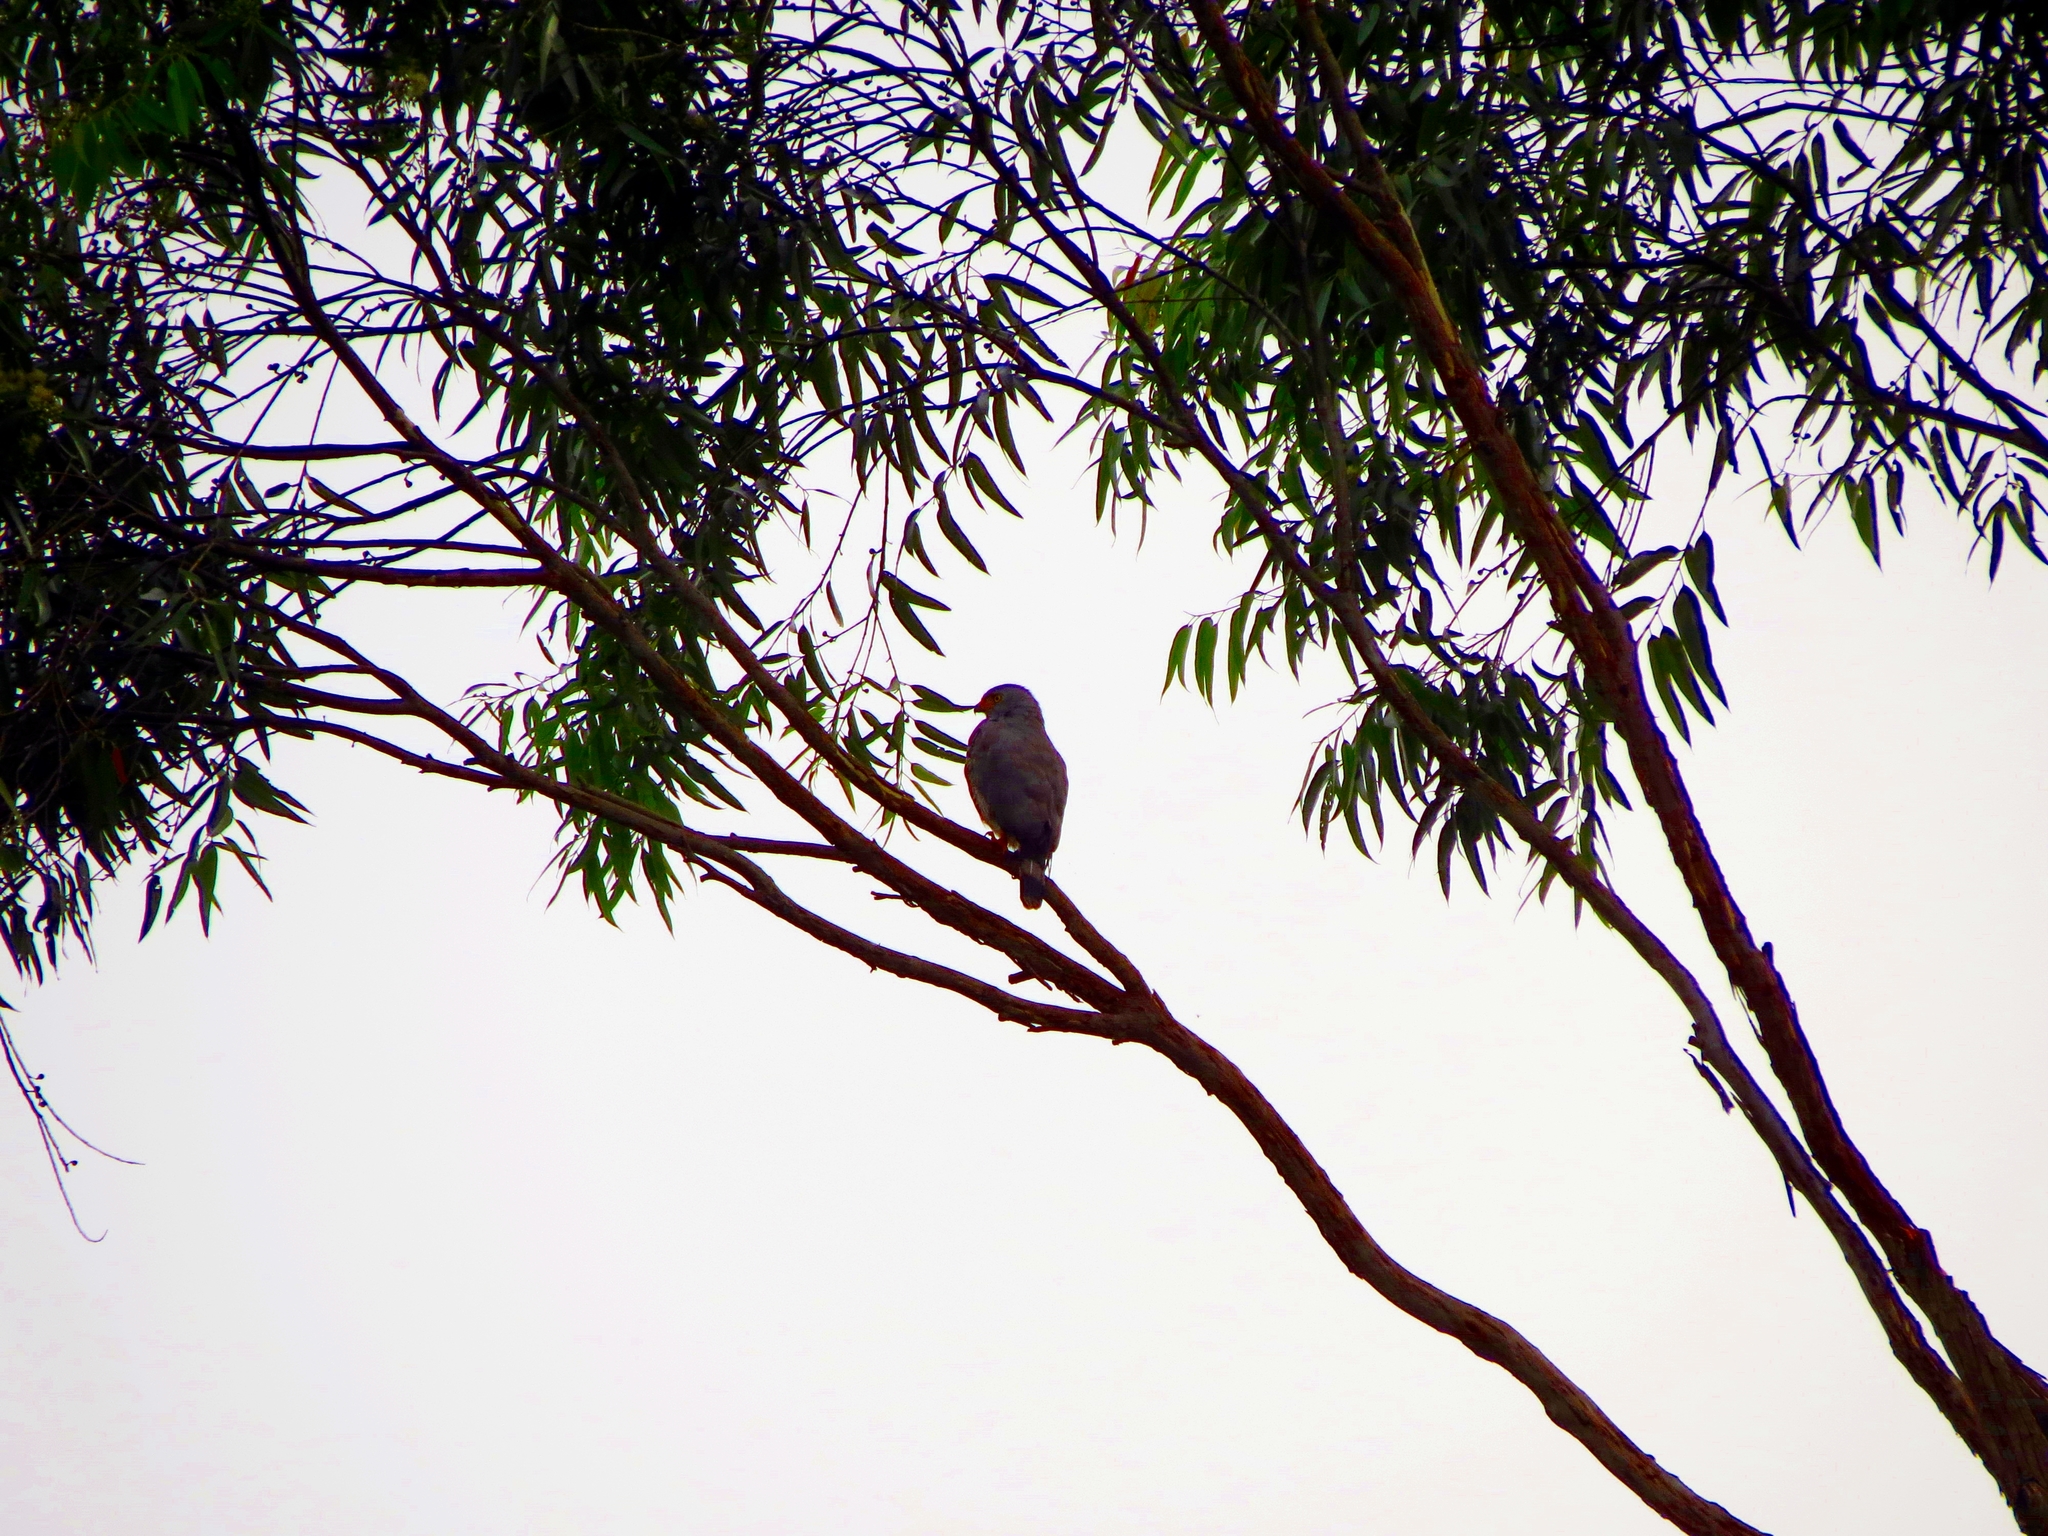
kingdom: Animalia
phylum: Chordata
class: Aves
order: Accipitriformes
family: Accipitridae
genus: Rupornis
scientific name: Rupornis magnirostris
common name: Roadside hawk
